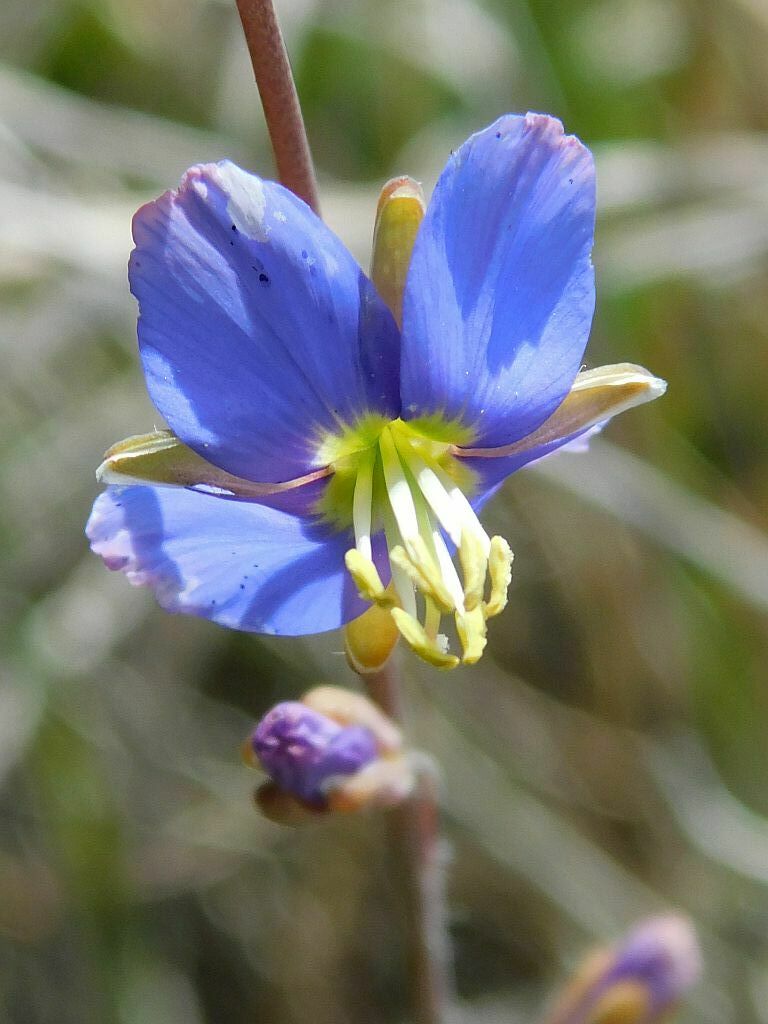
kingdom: Plantae
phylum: Tracheophyta
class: Magnoliopsida
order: Brassicales
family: Brassicaceae
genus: Heliophila
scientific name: Heliophila linearis
